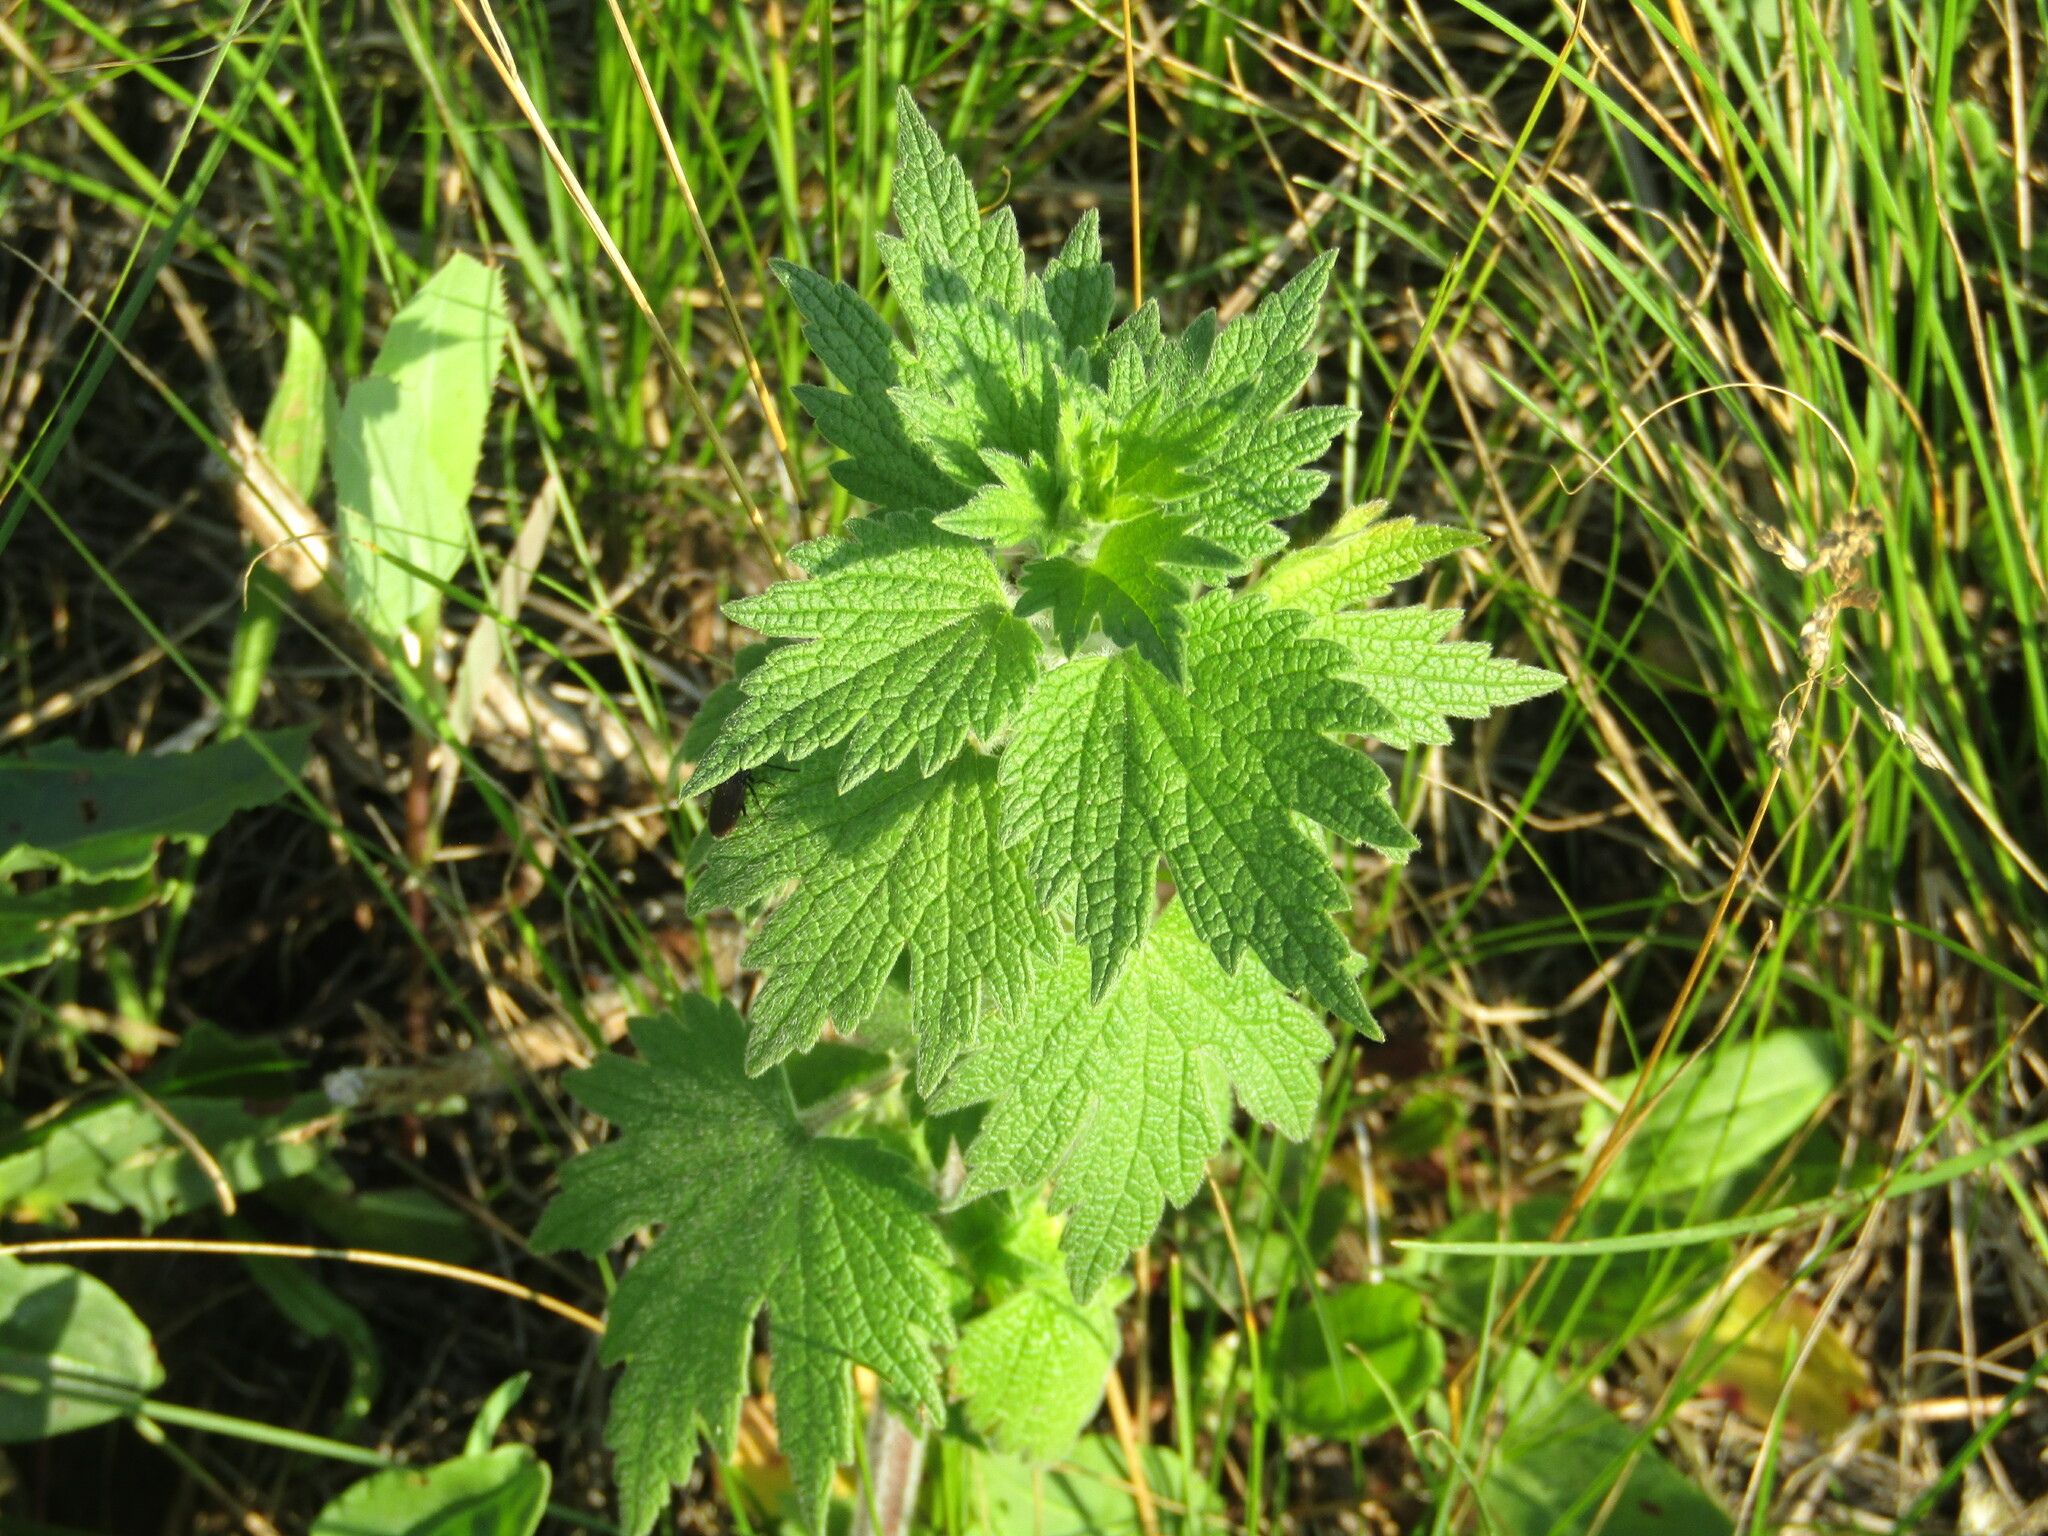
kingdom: Plantae
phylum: Tracheophyta
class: Magnoliopsida
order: Lamiales
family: Lamiaceae
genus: Leonurus
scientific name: Leonurus quinquelobatus
